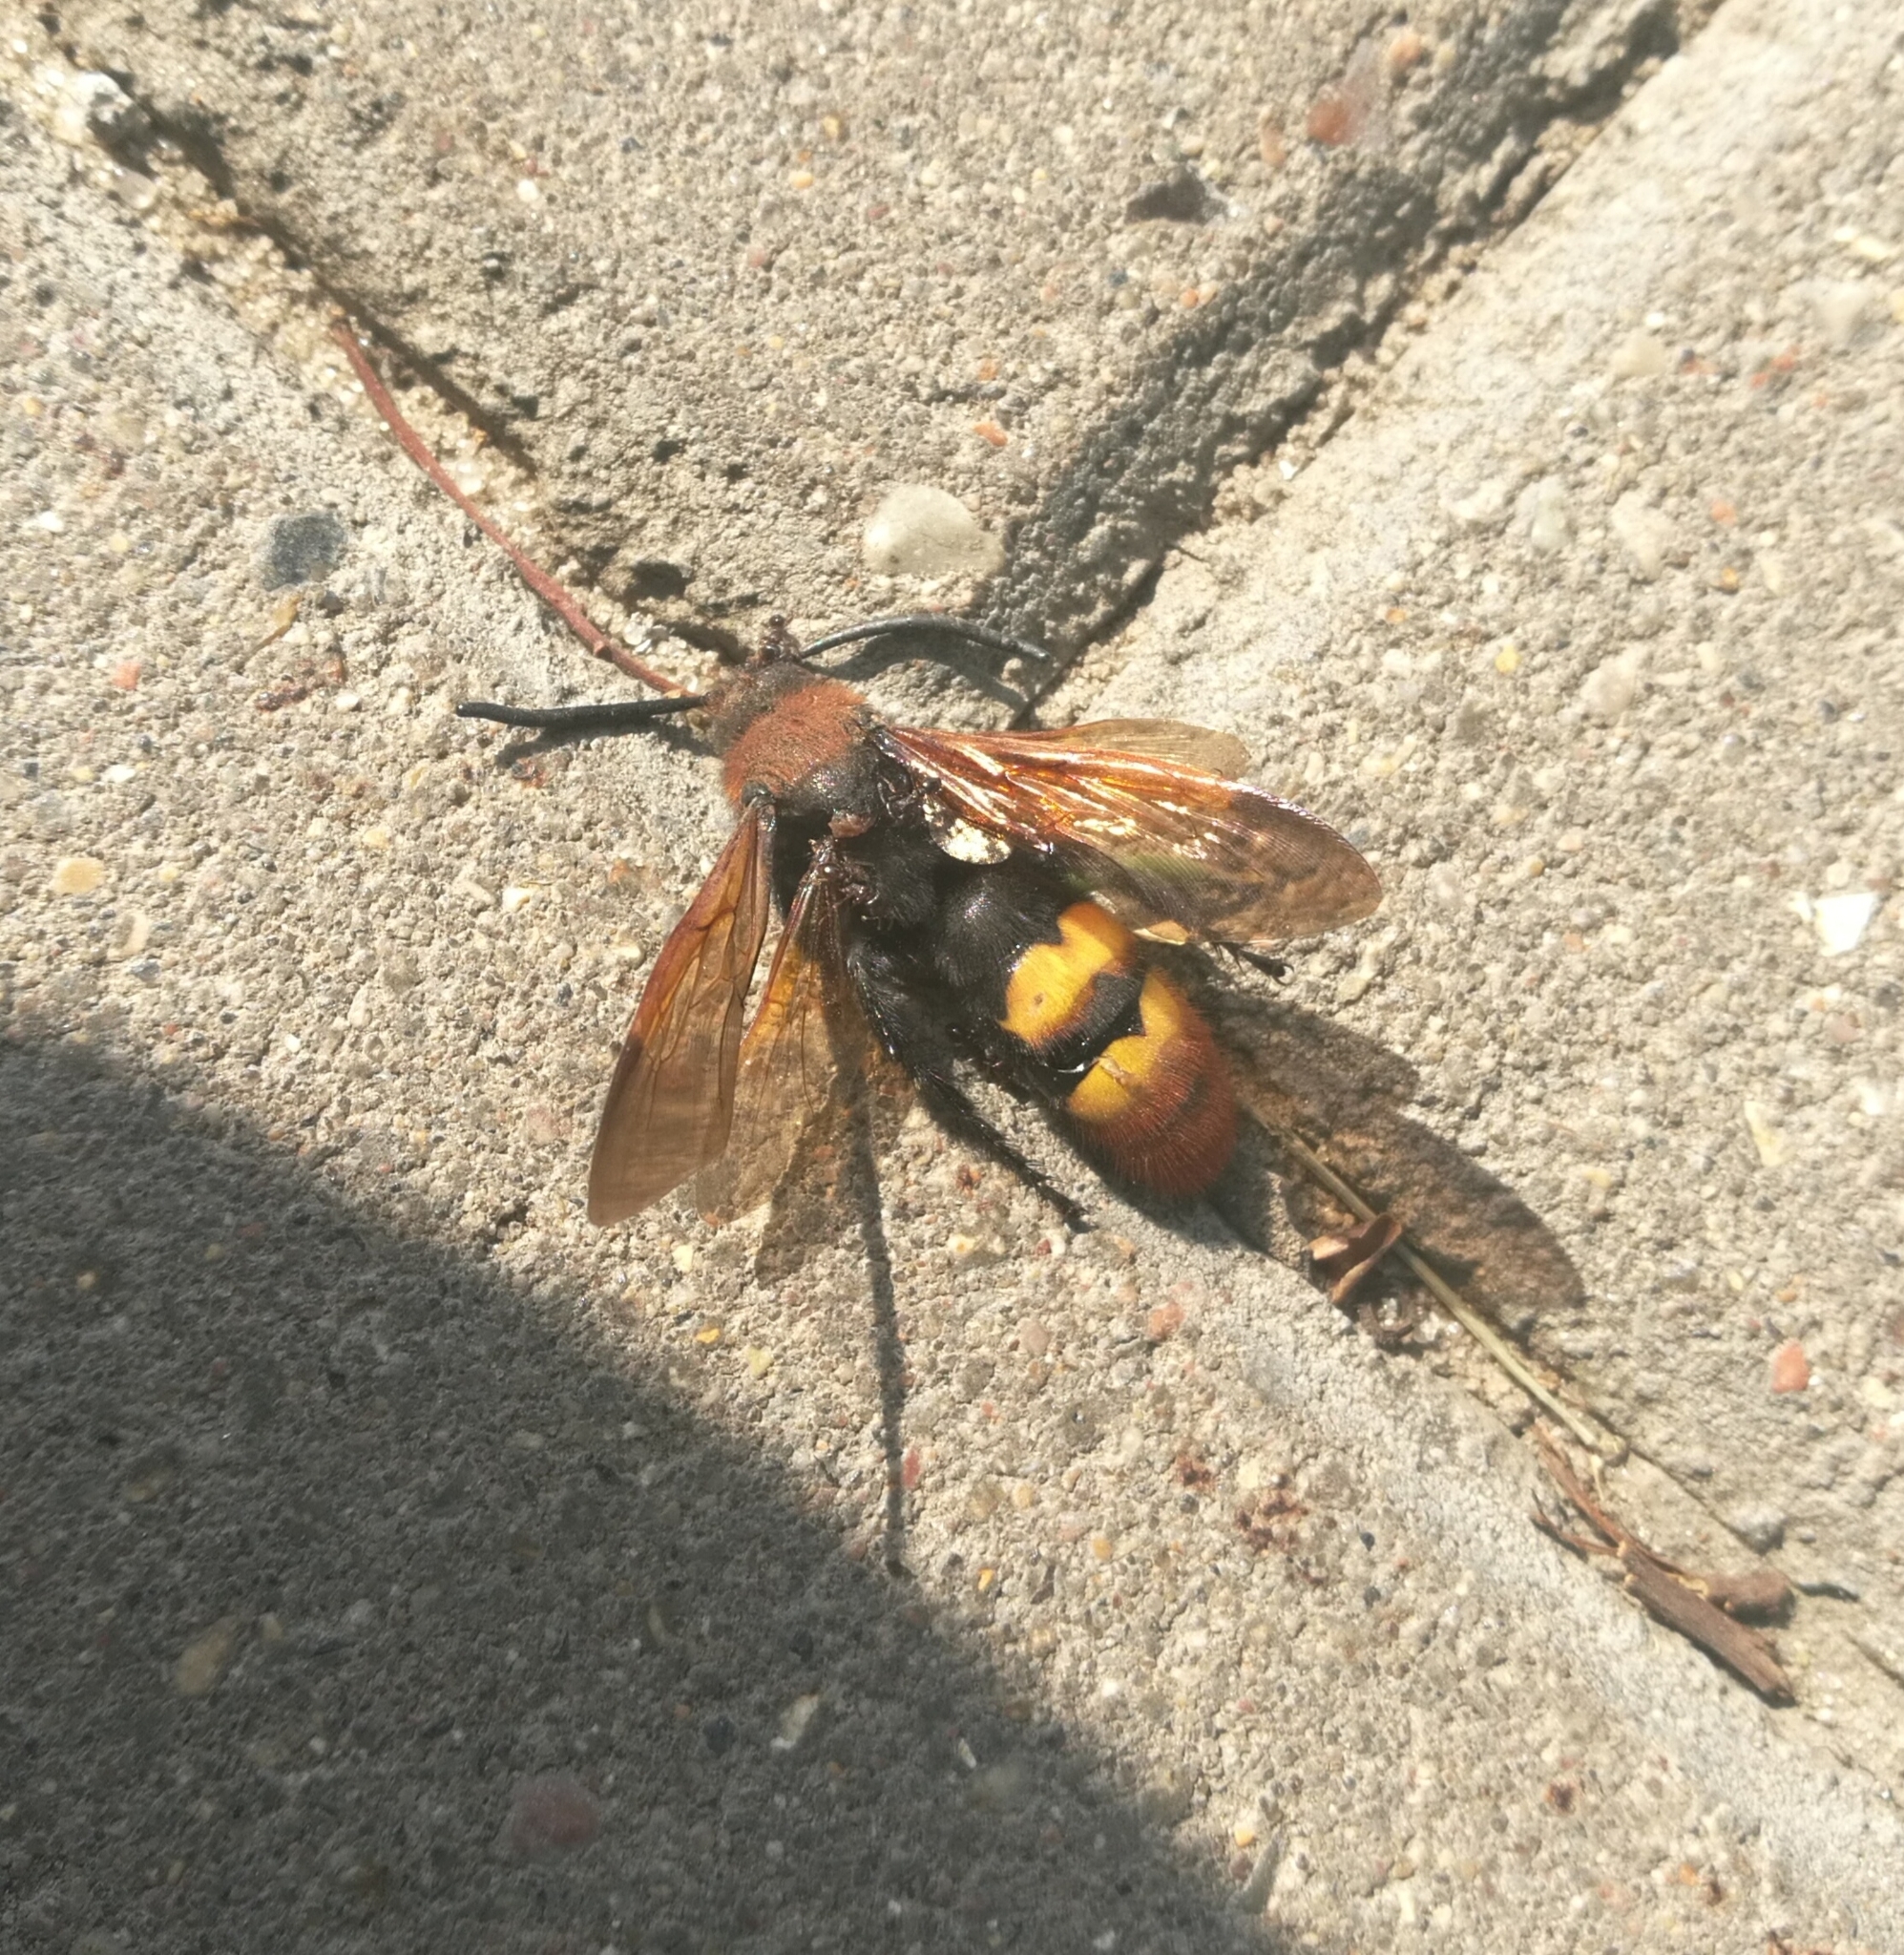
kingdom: Animalia
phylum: Arthropoda
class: Insecta
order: Hymenoptera
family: Scoliidae
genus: Megascolia
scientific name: Megascolia maculata
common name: Mammoth wasp
